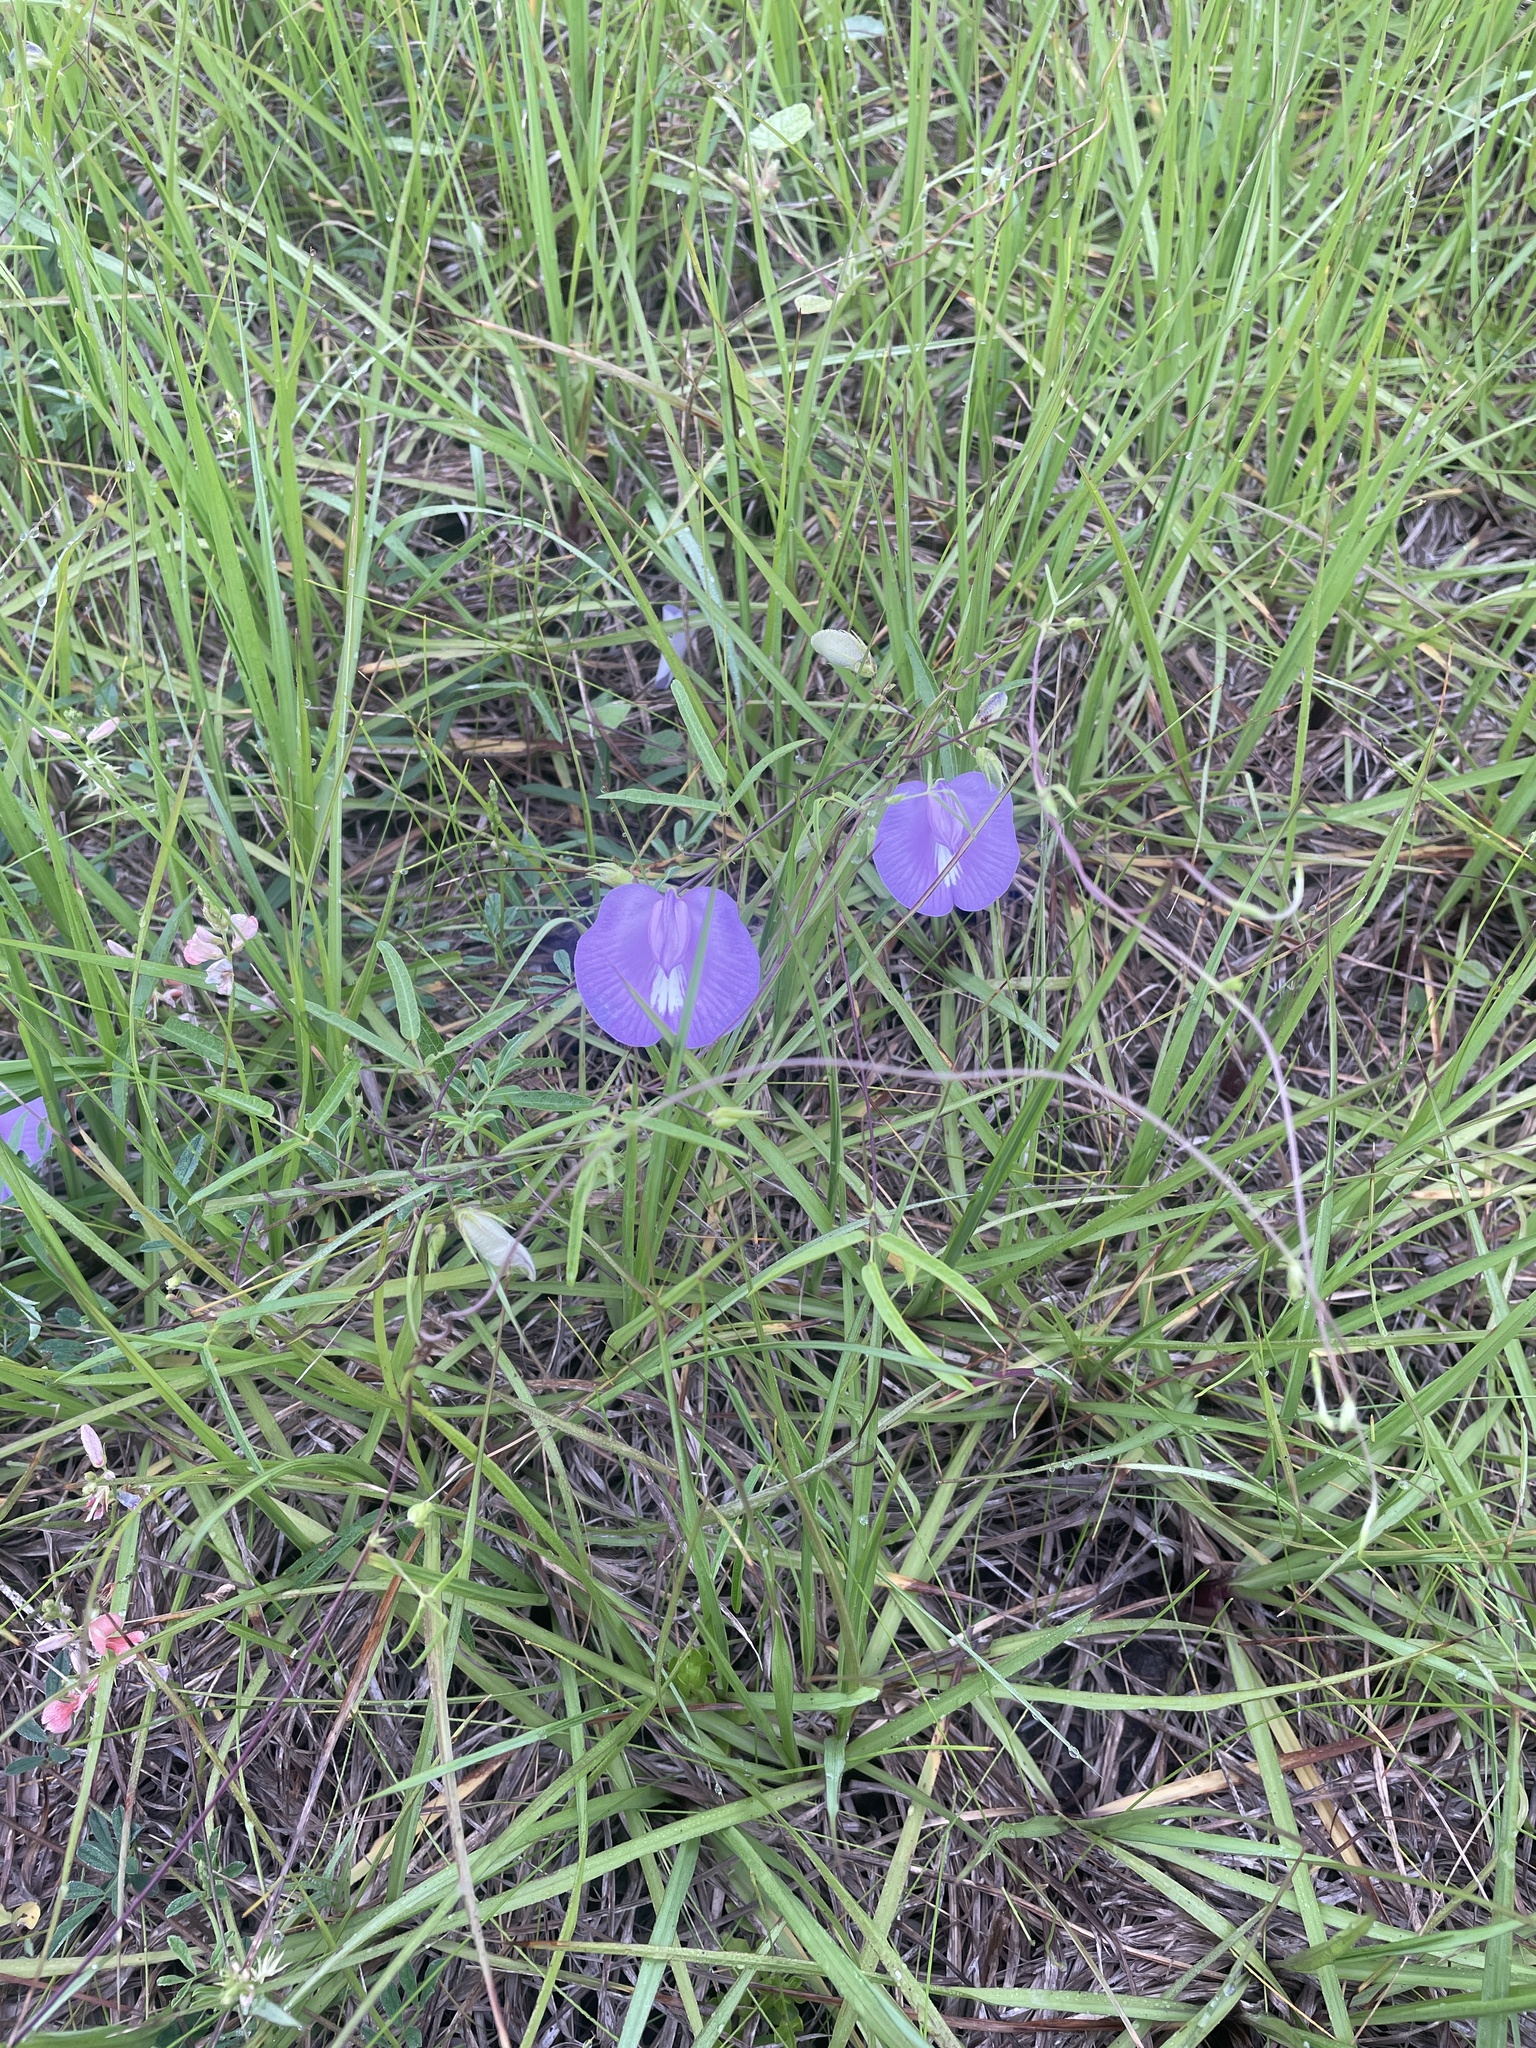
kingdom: Plantae
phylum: Tracheophyta
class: Magnoliopsida
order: Fabales
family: Fabaceae
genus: Centrosema
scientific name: Centrosema virginianum
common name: Butterfly-pea
